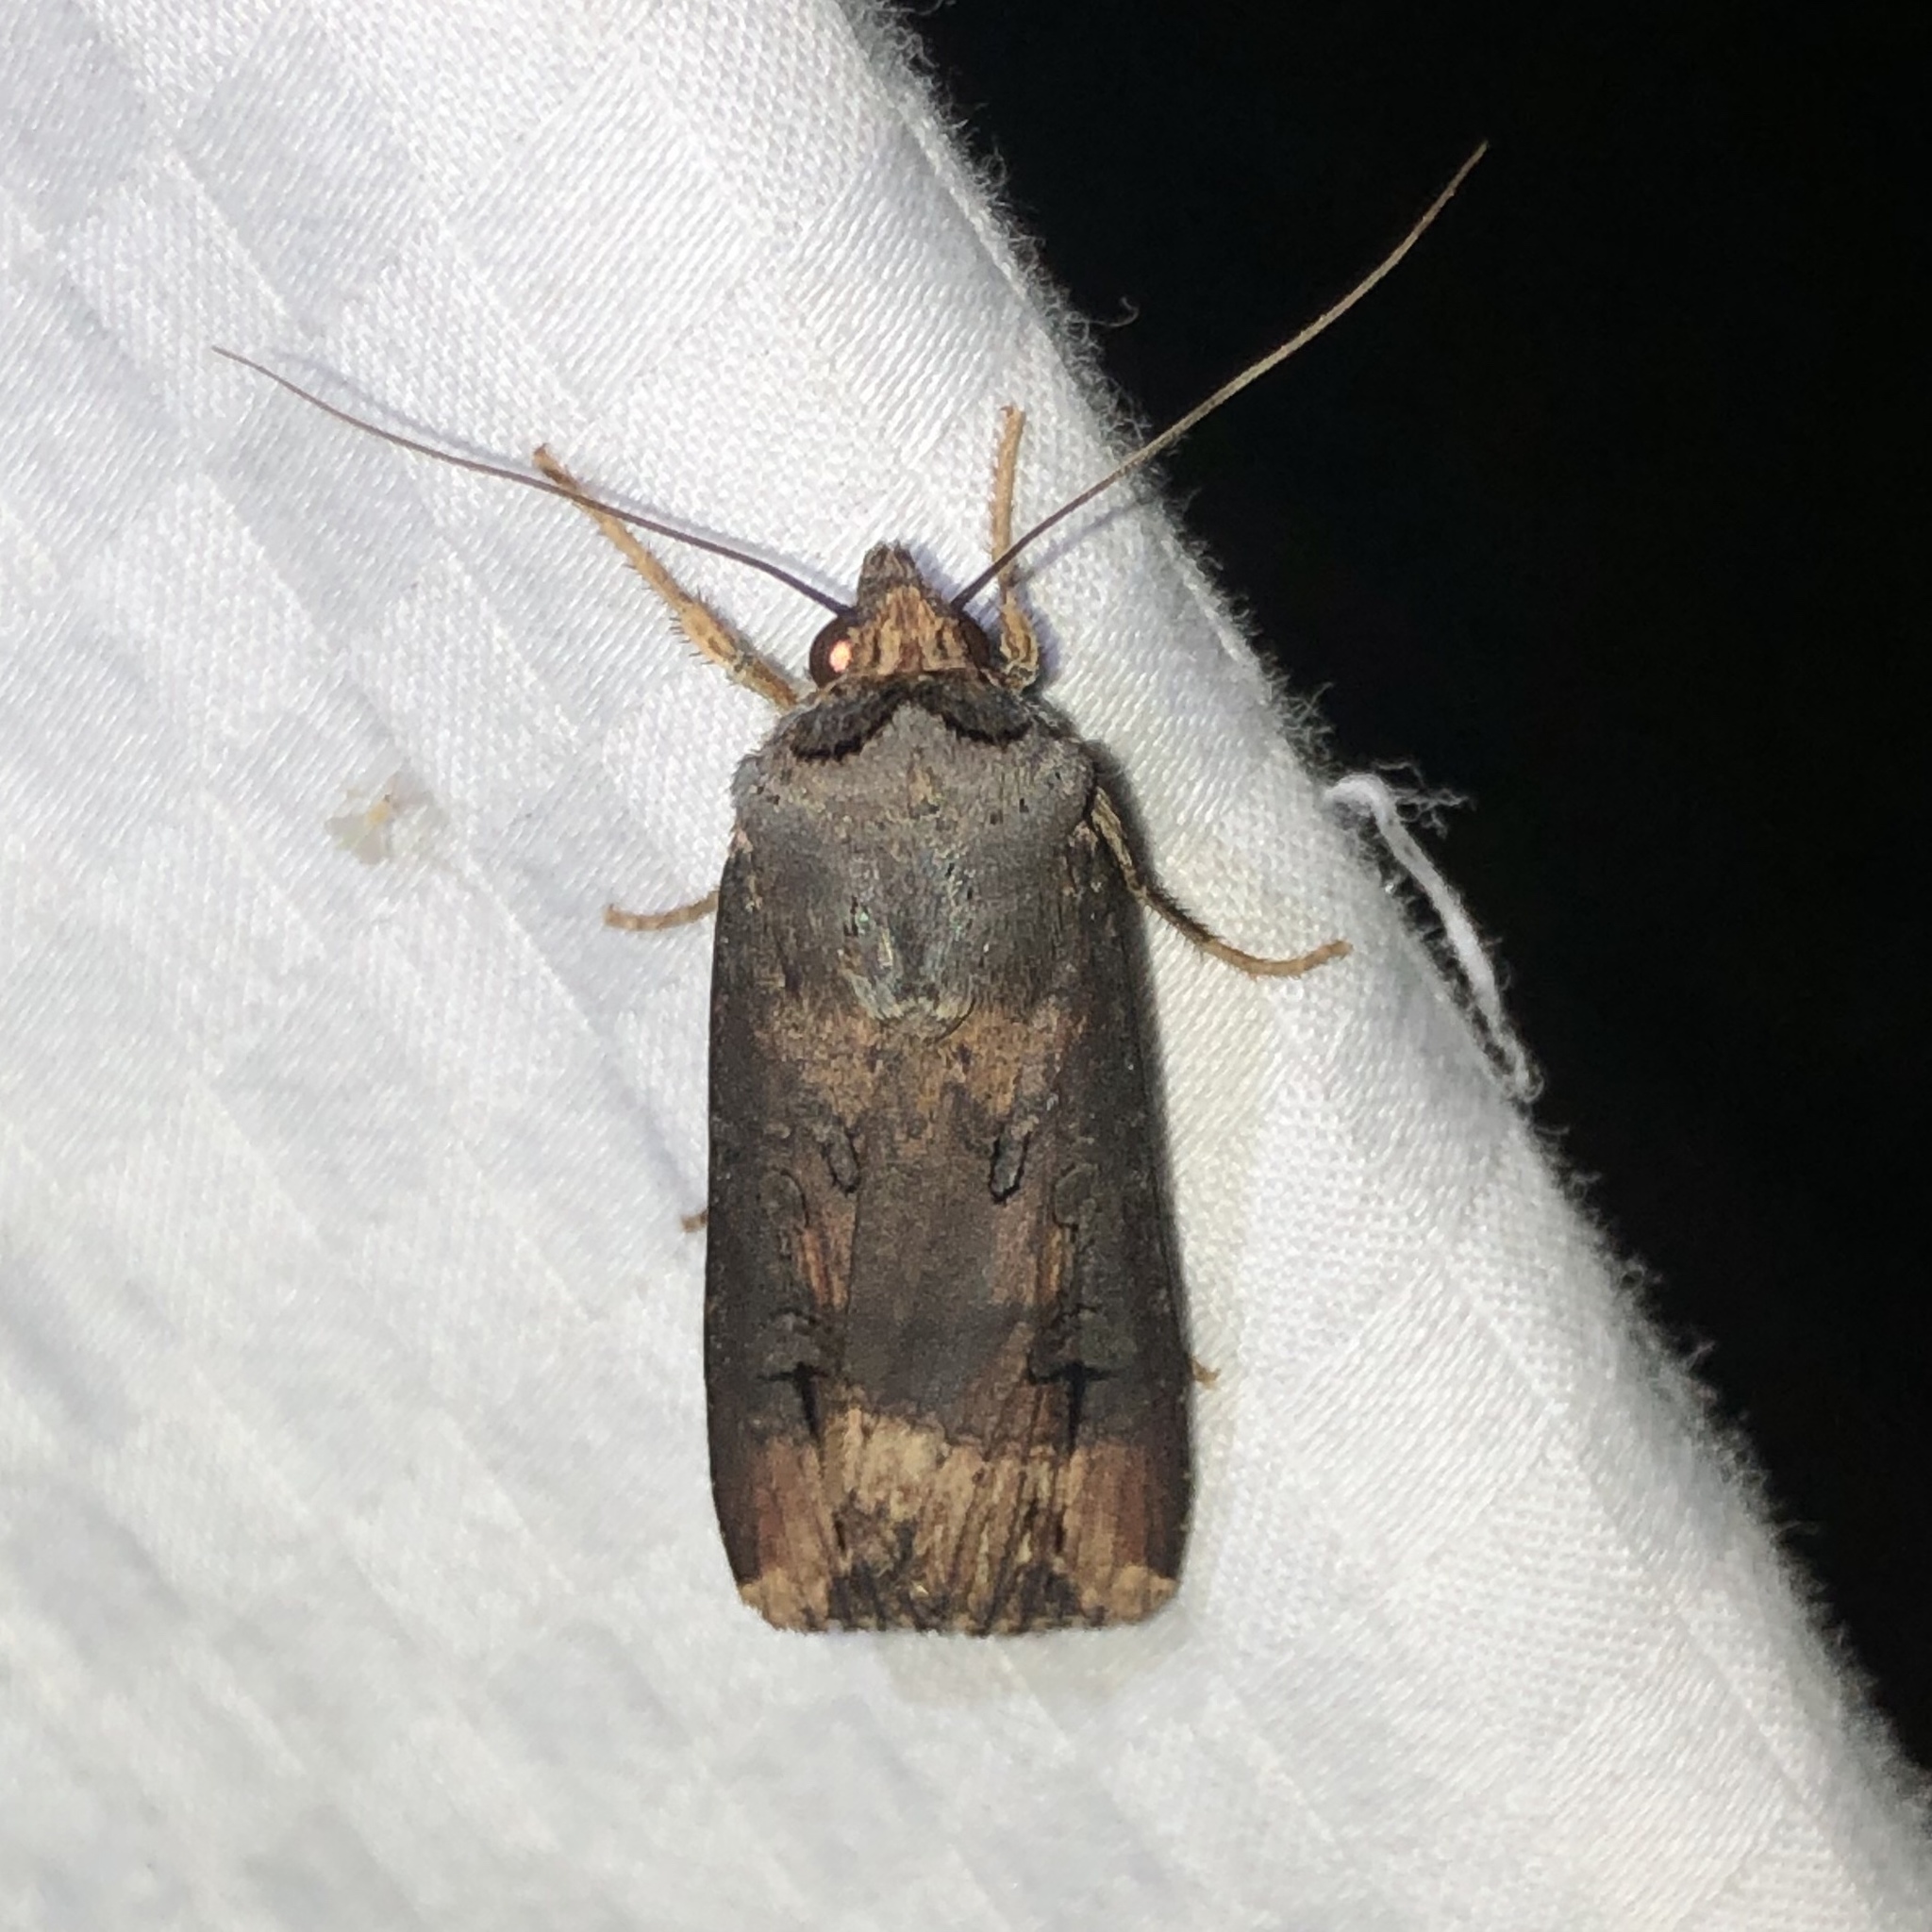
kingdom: Animalia
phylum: Arthropoda
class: Insecta
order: Lepidoptera
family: Noctuidae
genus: Agrotis
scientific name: Agrotis ipsilon
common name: Dark sword-grass
